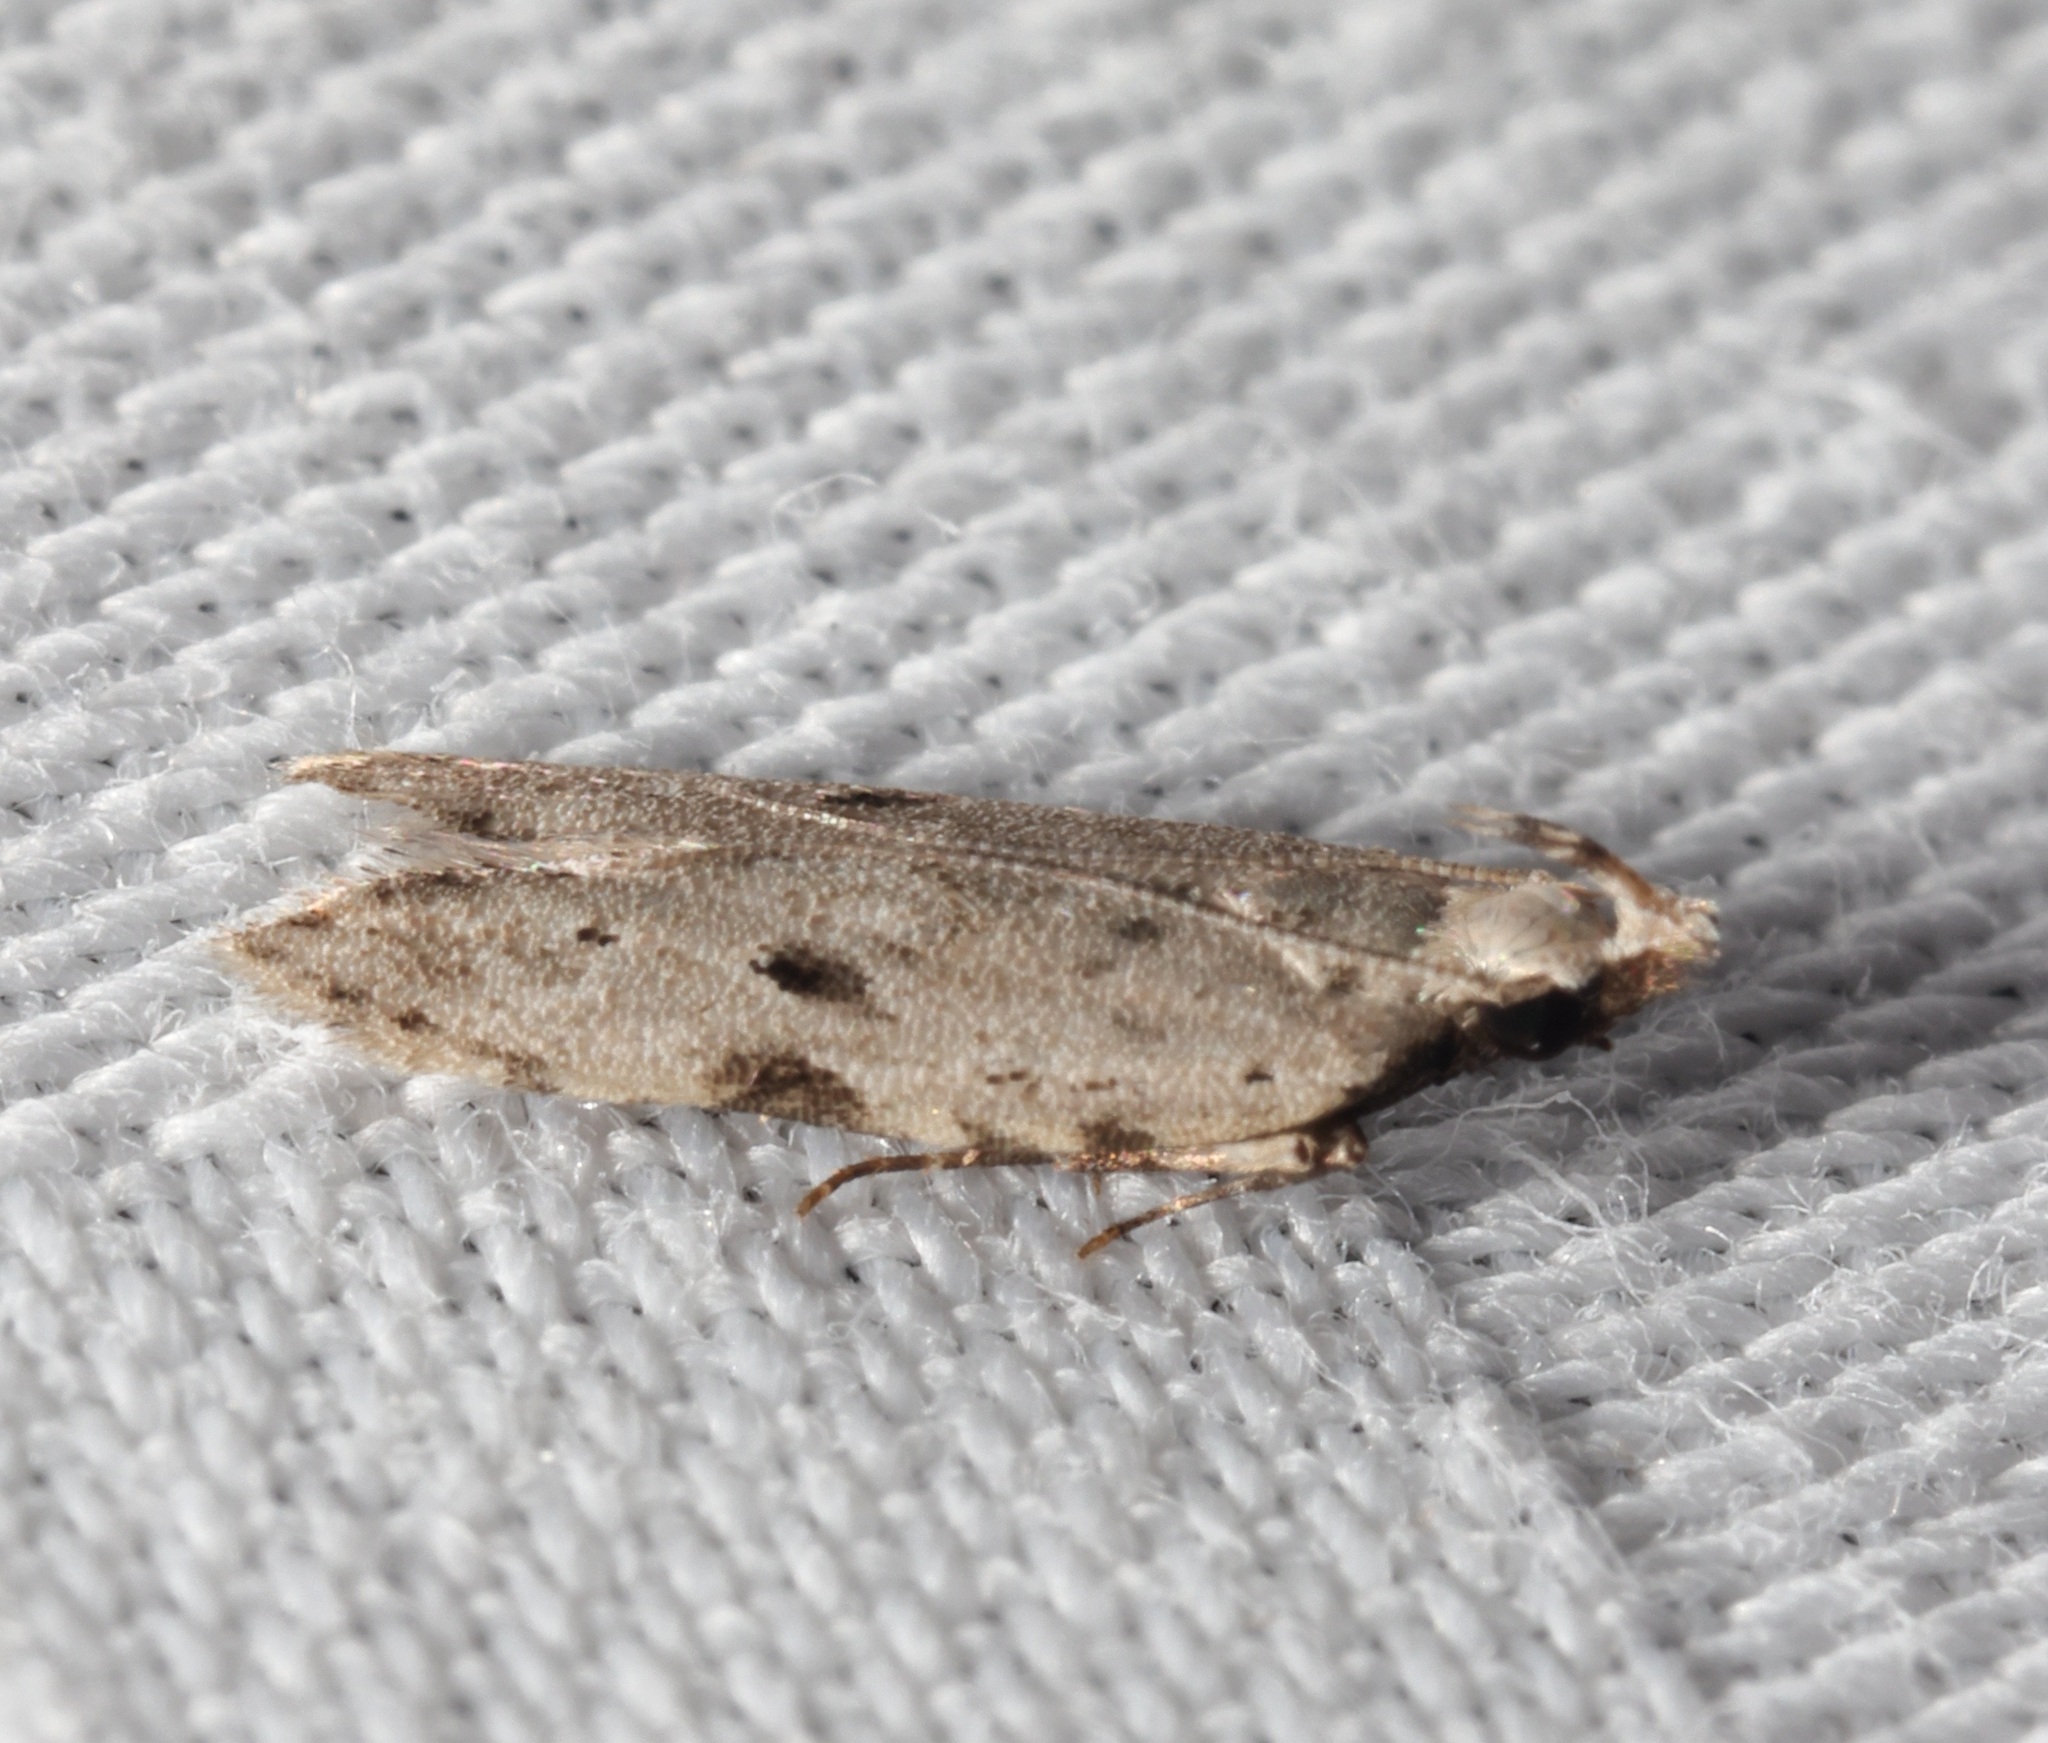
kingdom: Animalia
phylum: Arthropoda
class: Insecta
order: Lepidoptera
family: Gelechiidae
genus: Anarsia
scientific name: Anarsia patulella
